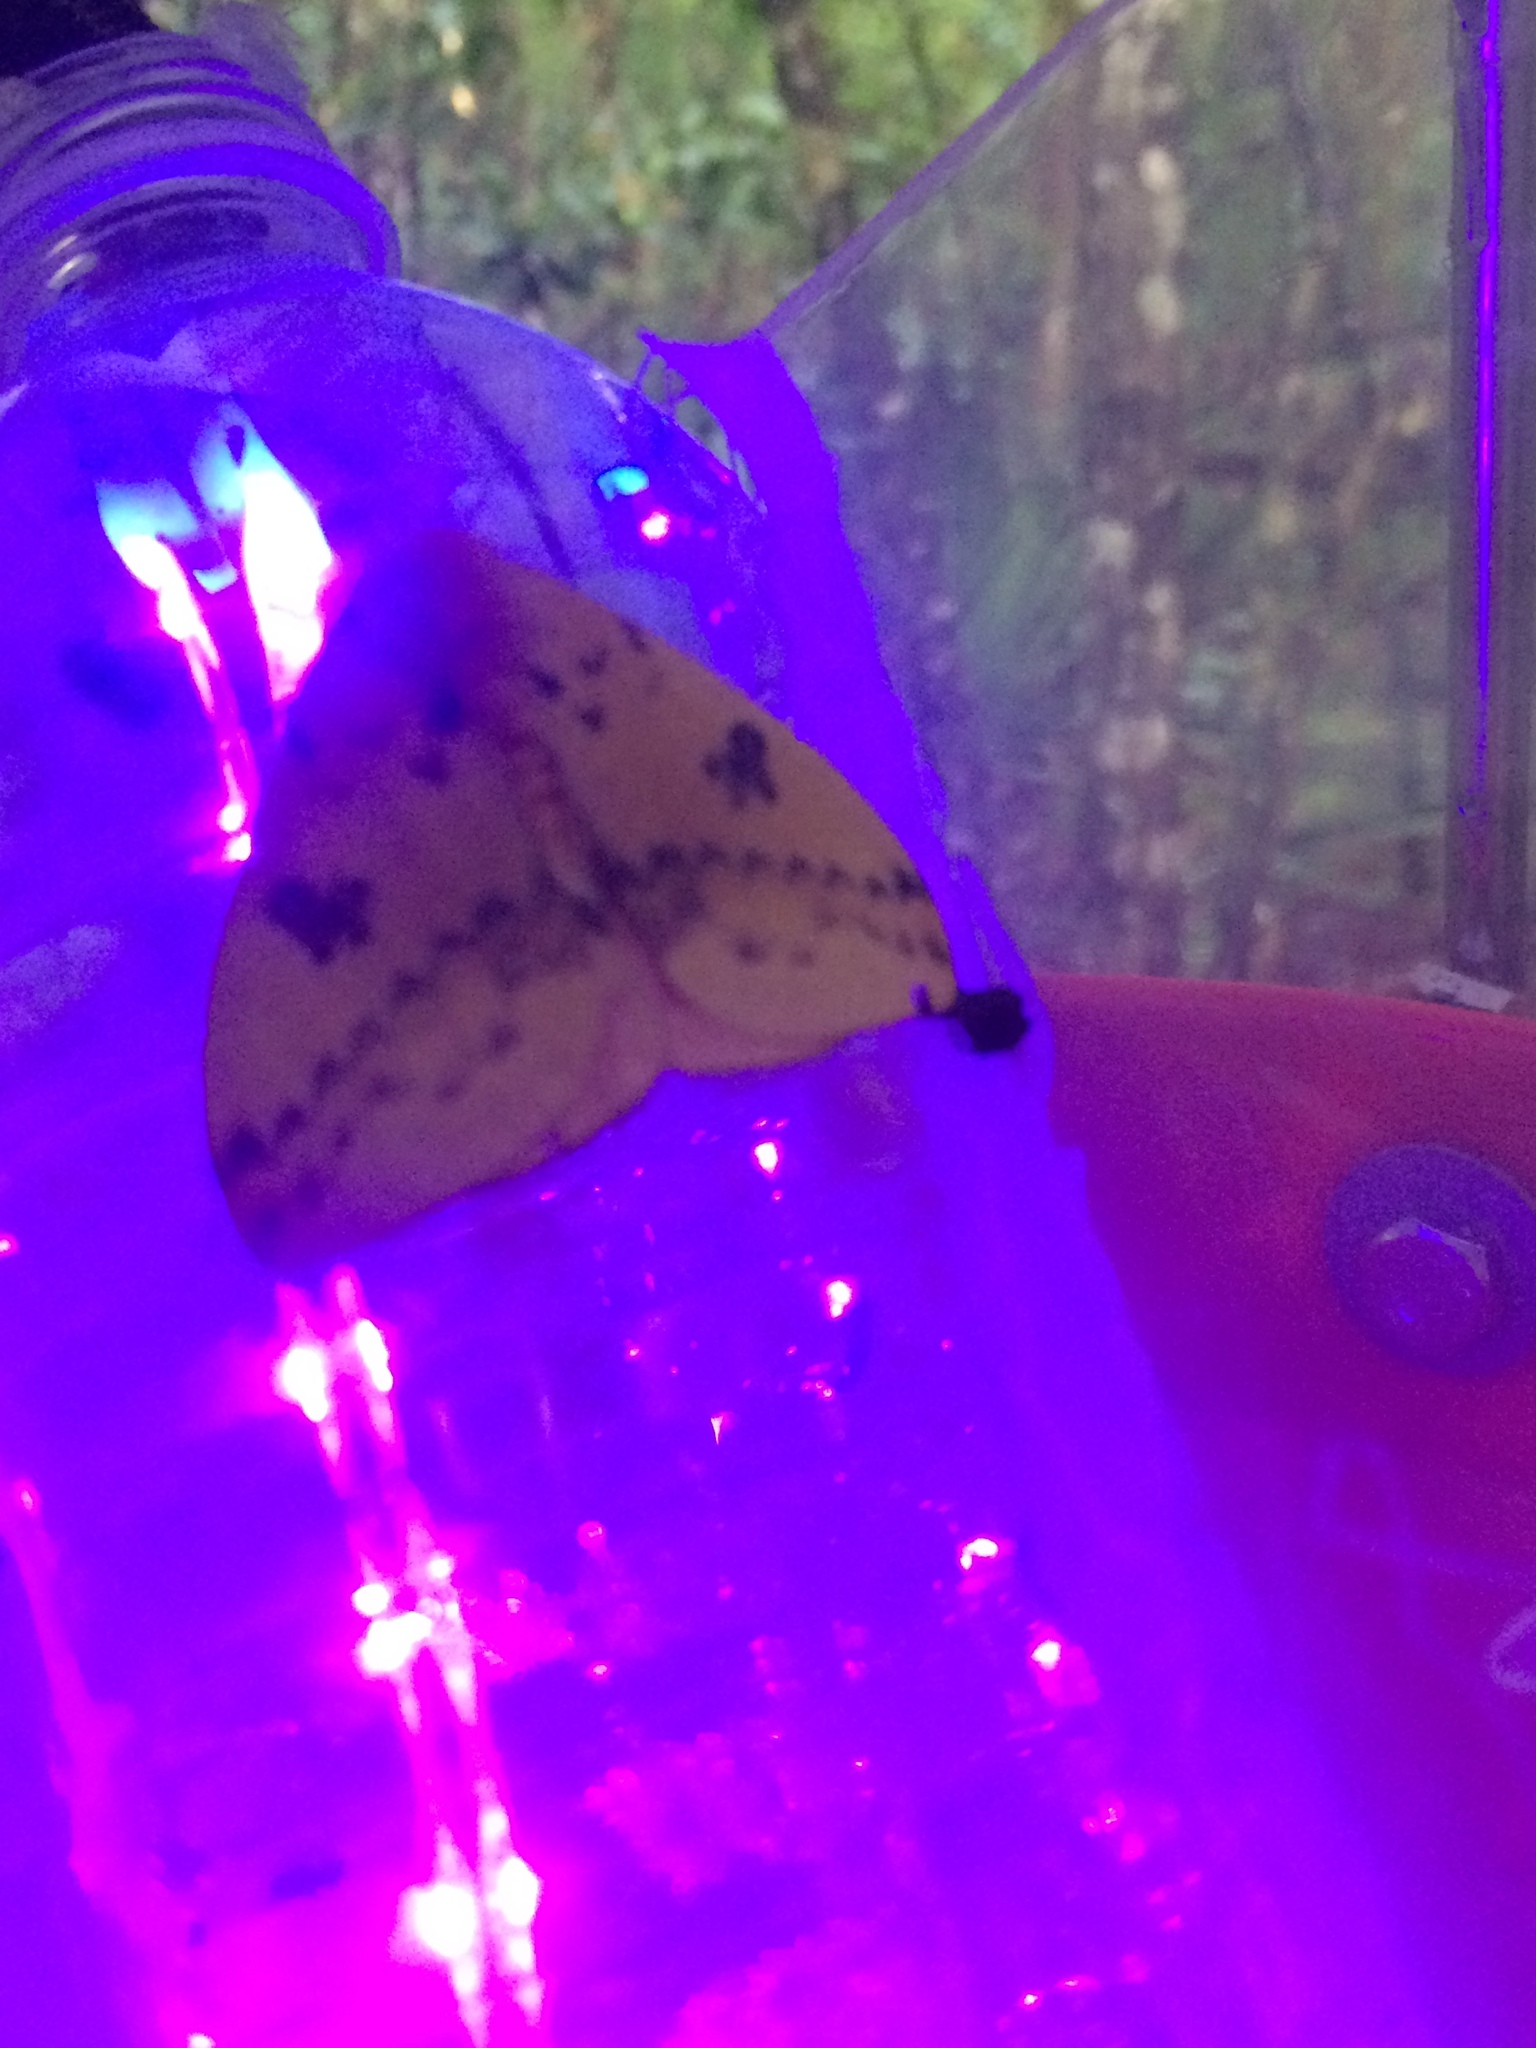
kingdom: Animalia
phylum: Arthropoda
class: Insecta
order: Lepidoptera
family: Saturniidae
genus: Automeris
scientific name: Automeris io
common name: Io moth
